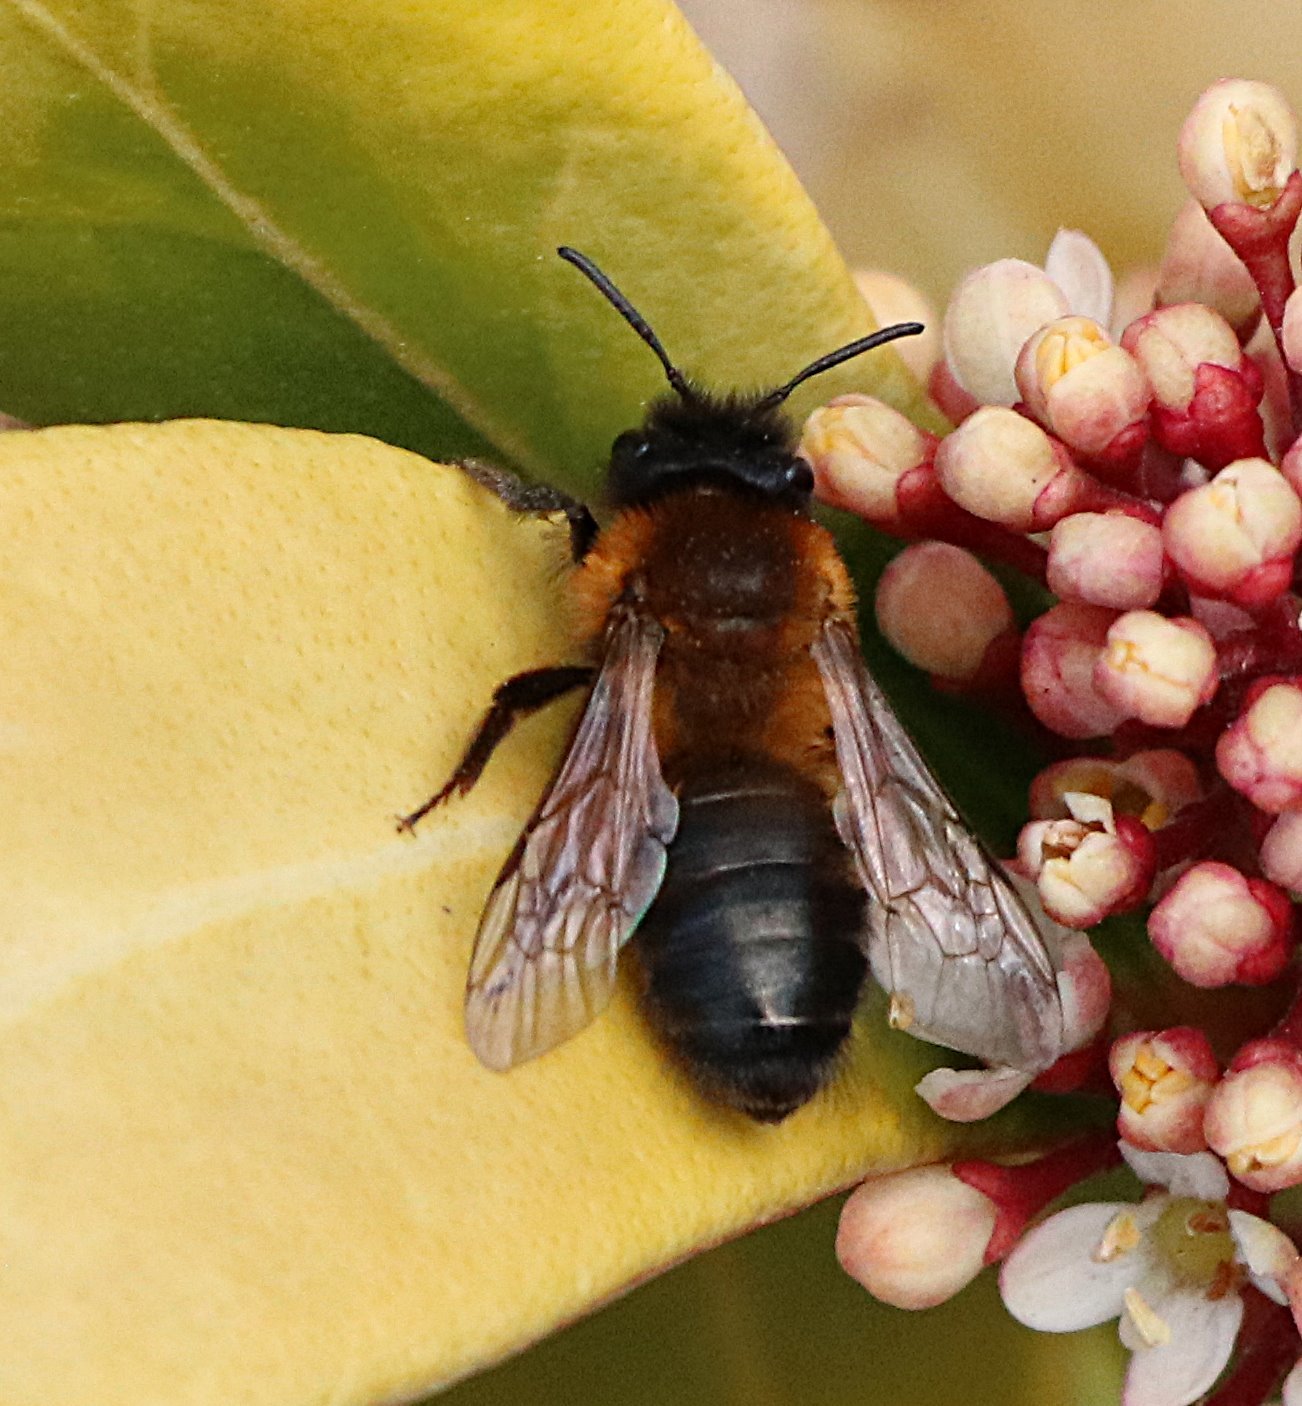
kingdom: Animalia
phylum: Arthropoda
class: Insecta
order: Hymenoptera
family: Andrenidae
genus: Andrena
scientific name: Andrena nigroaenea
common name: Buffish mining bee
